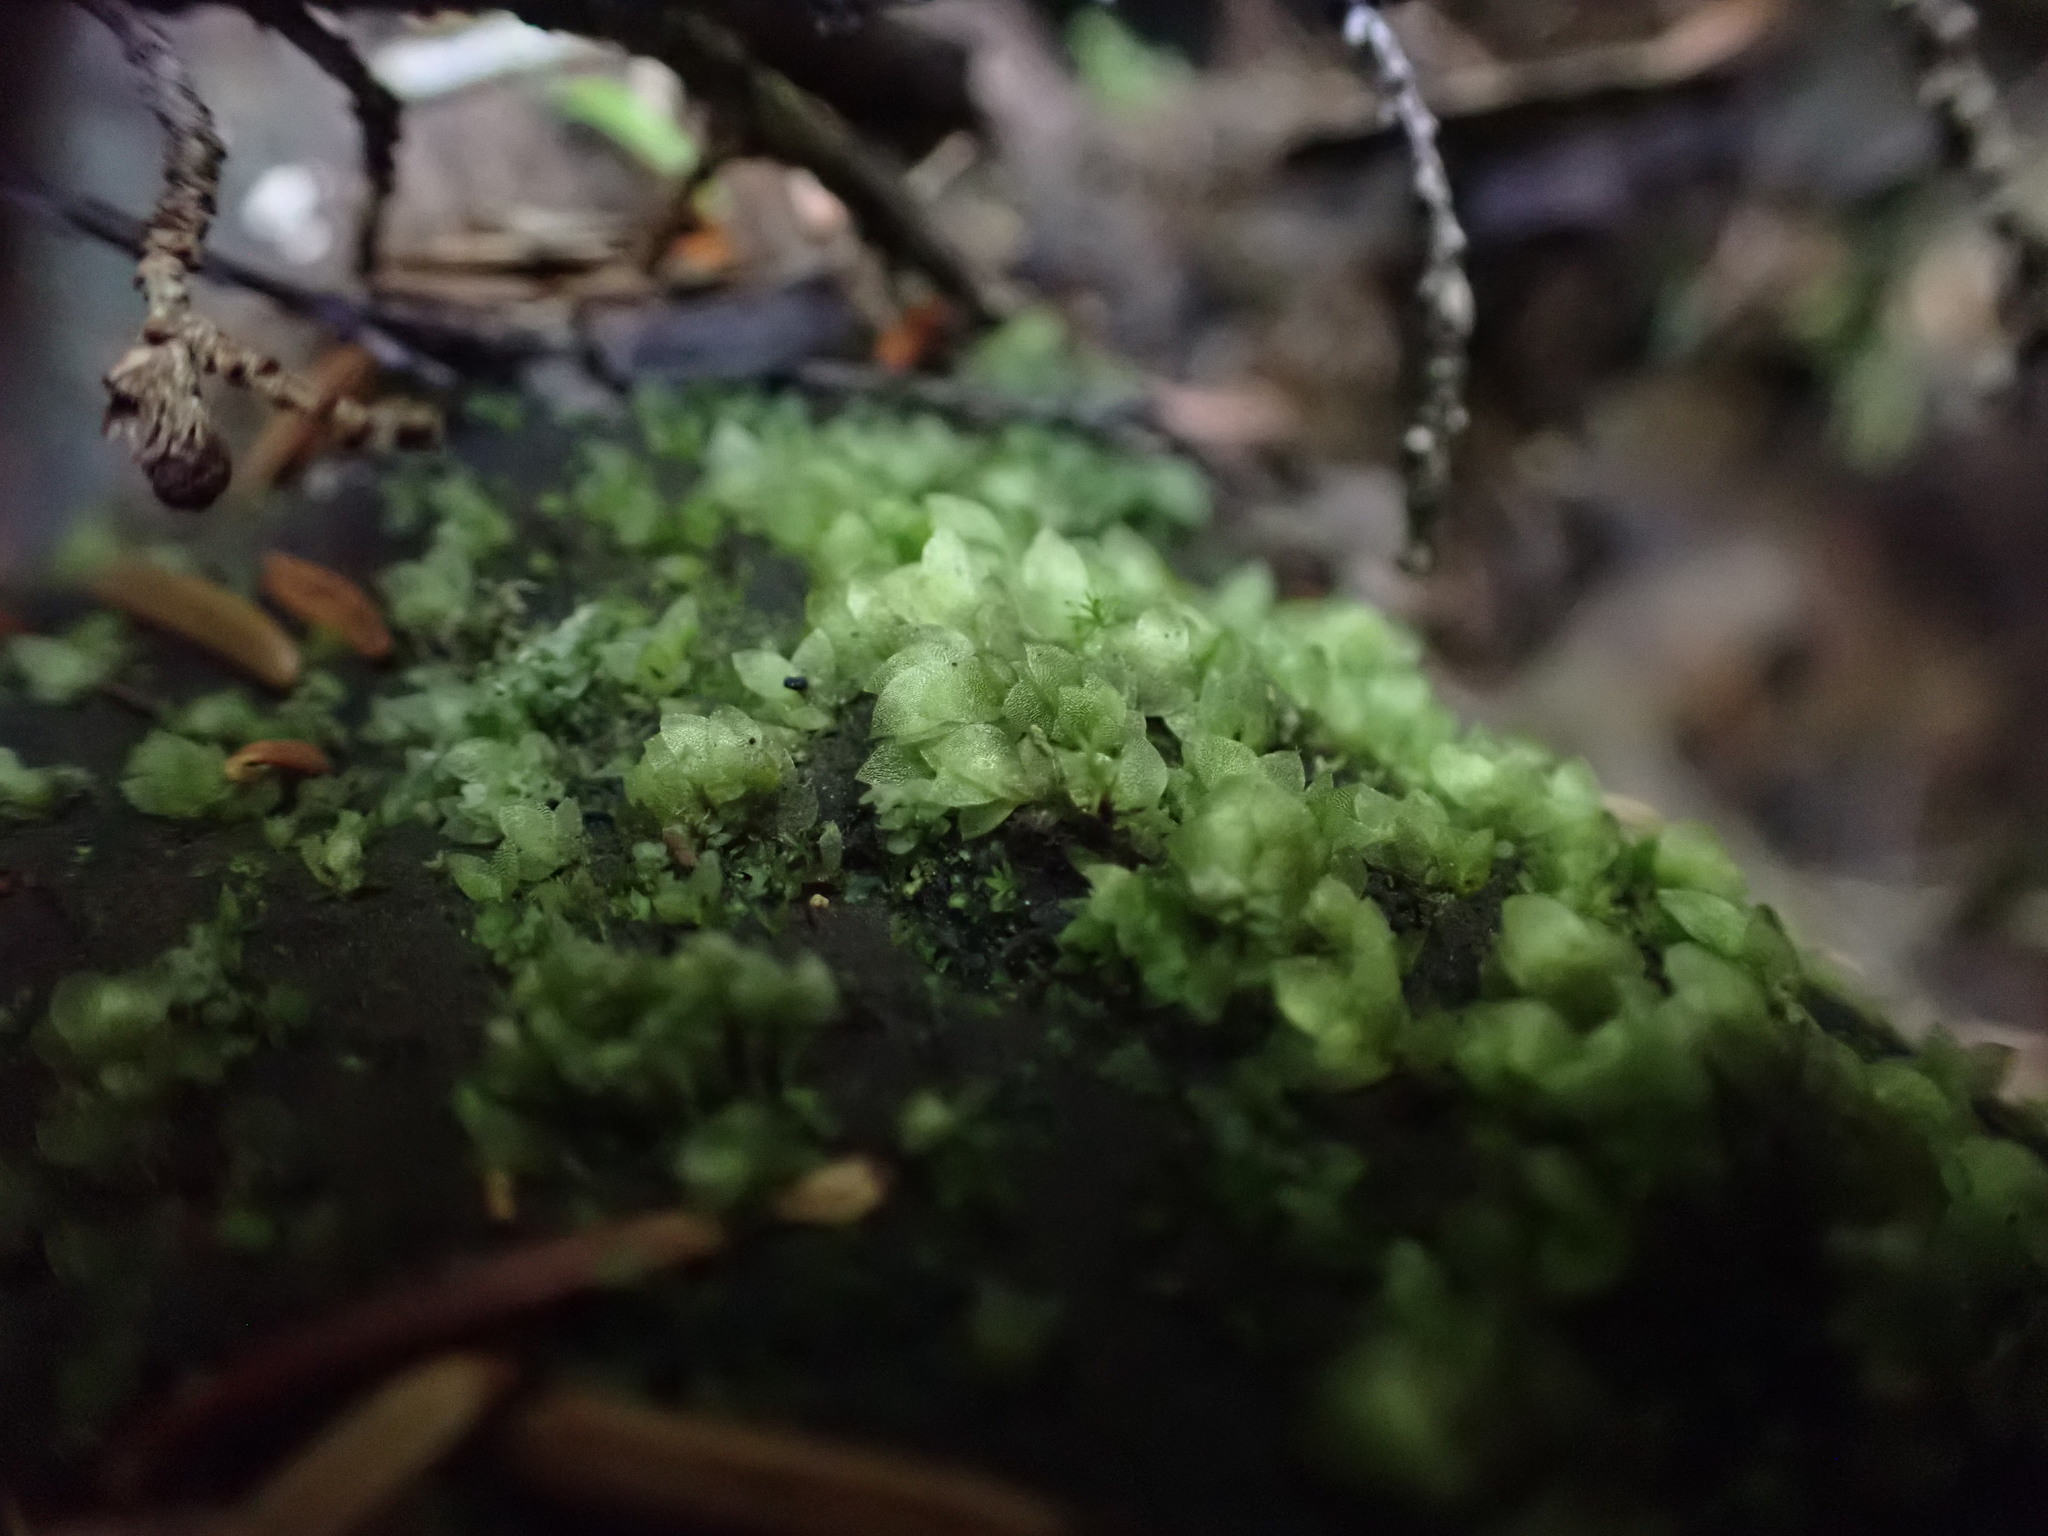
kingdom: Plantae
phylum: Bryophyta
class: Bryopsida
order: Hookeriales
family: Hookeriaceae
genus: Hookeria
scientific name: Hookeria acutifolia
